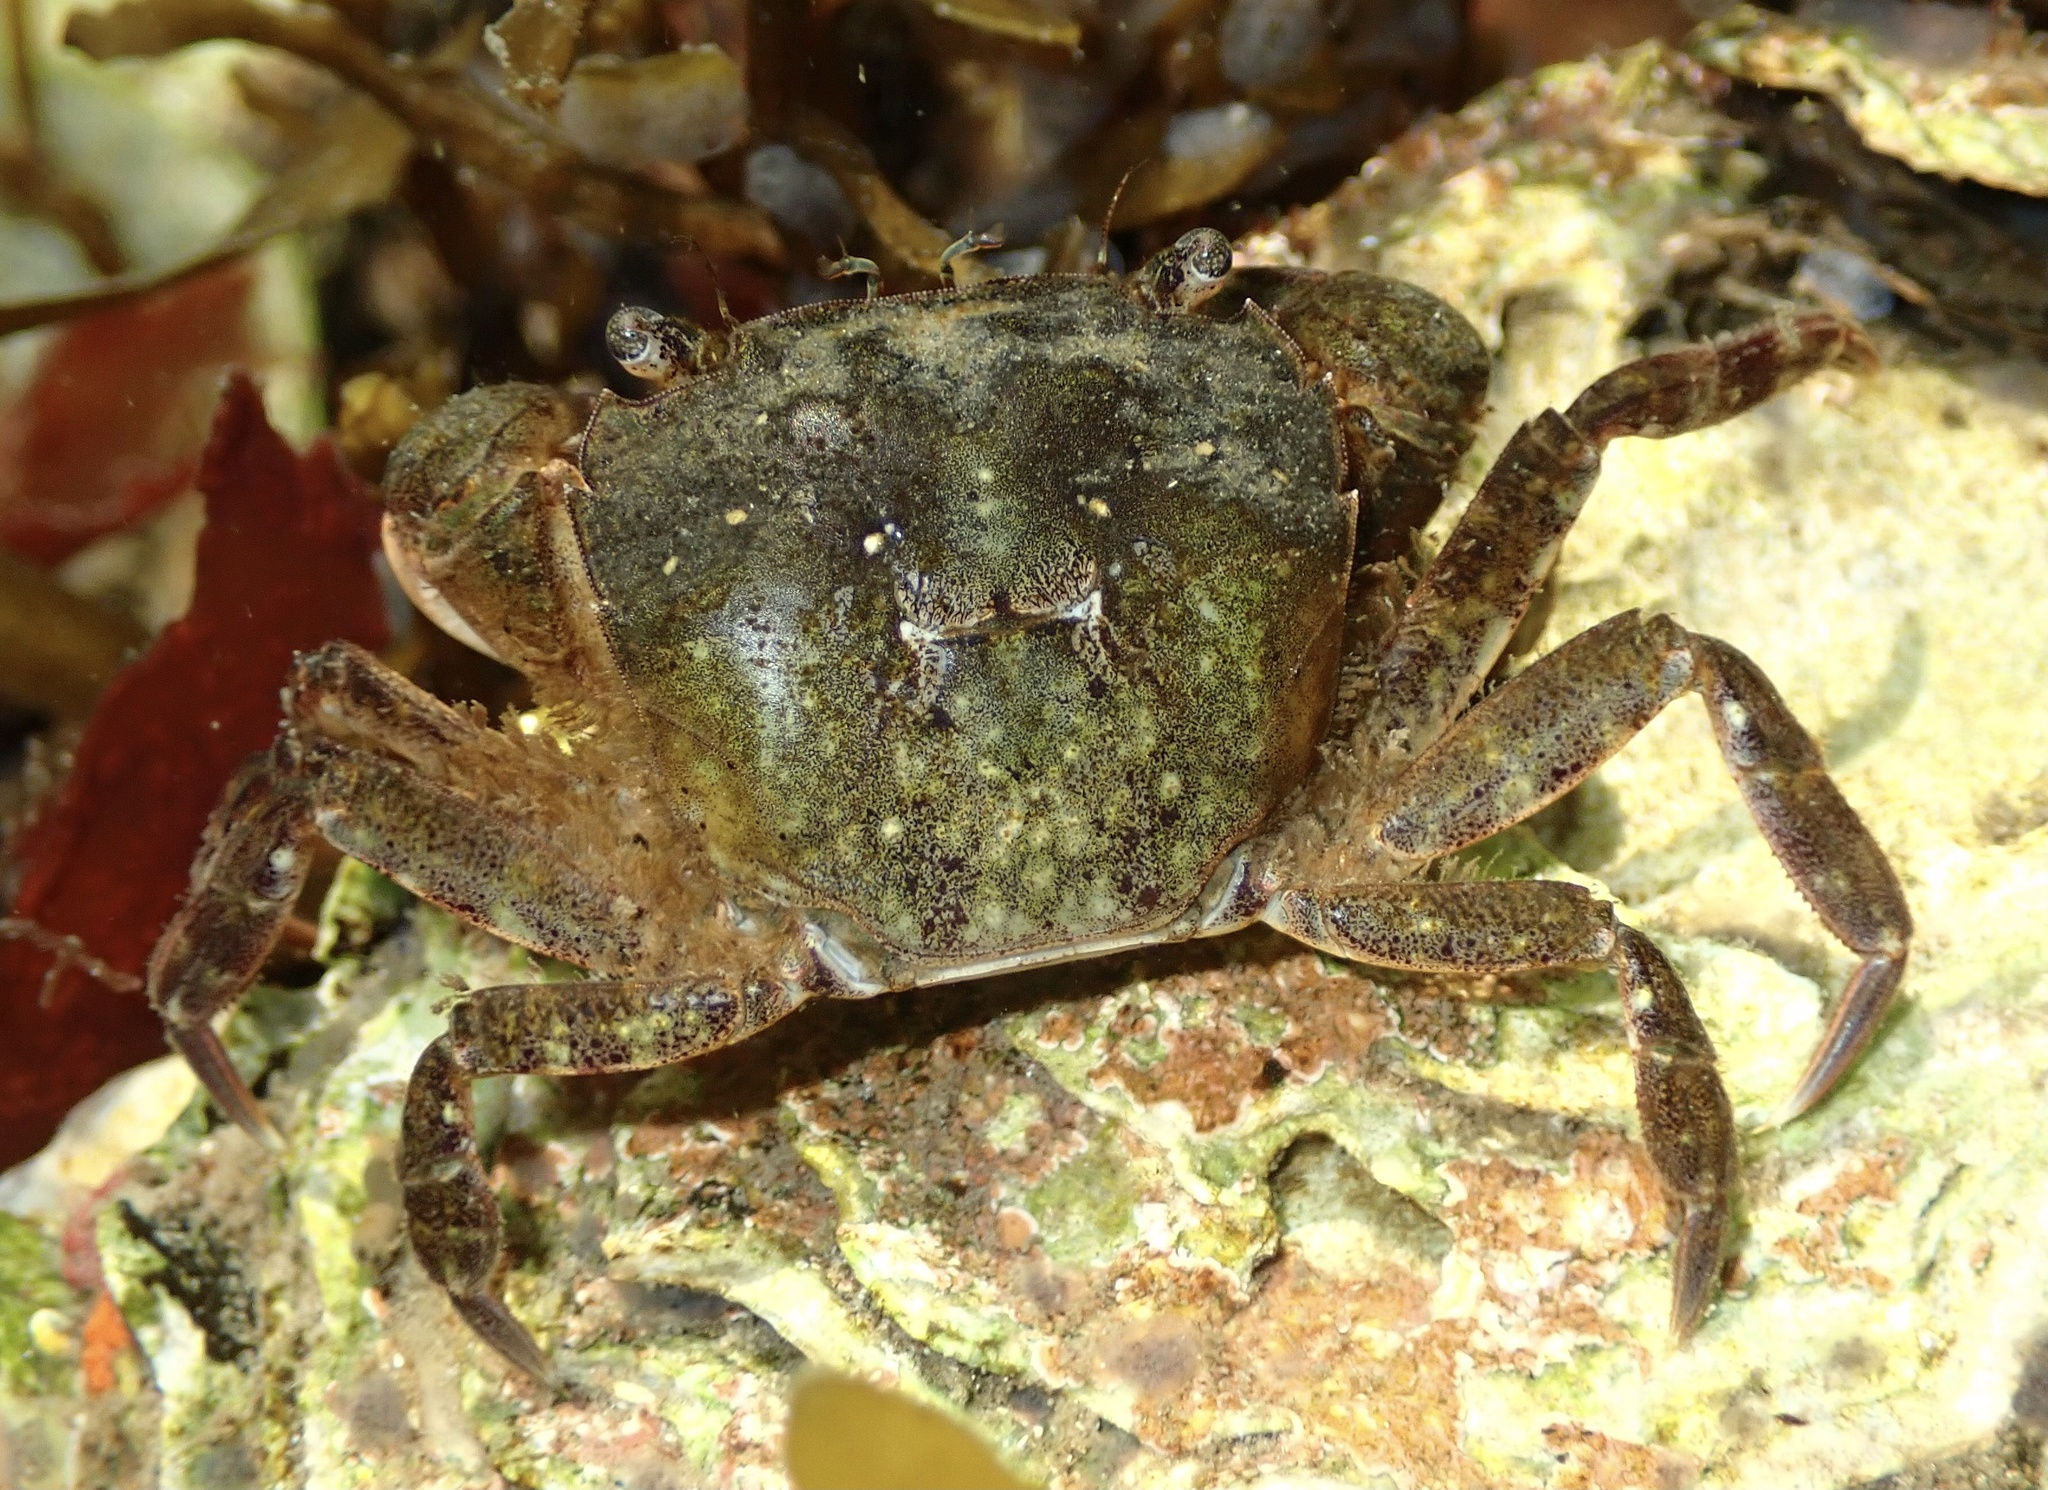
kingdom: Animalia
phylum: Arthropoda
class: Malacostraca
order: Decapoda
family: Varunidae
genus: Hemigrapsus
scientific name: Hemigrapsus takanoi
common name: Asian brush crab
